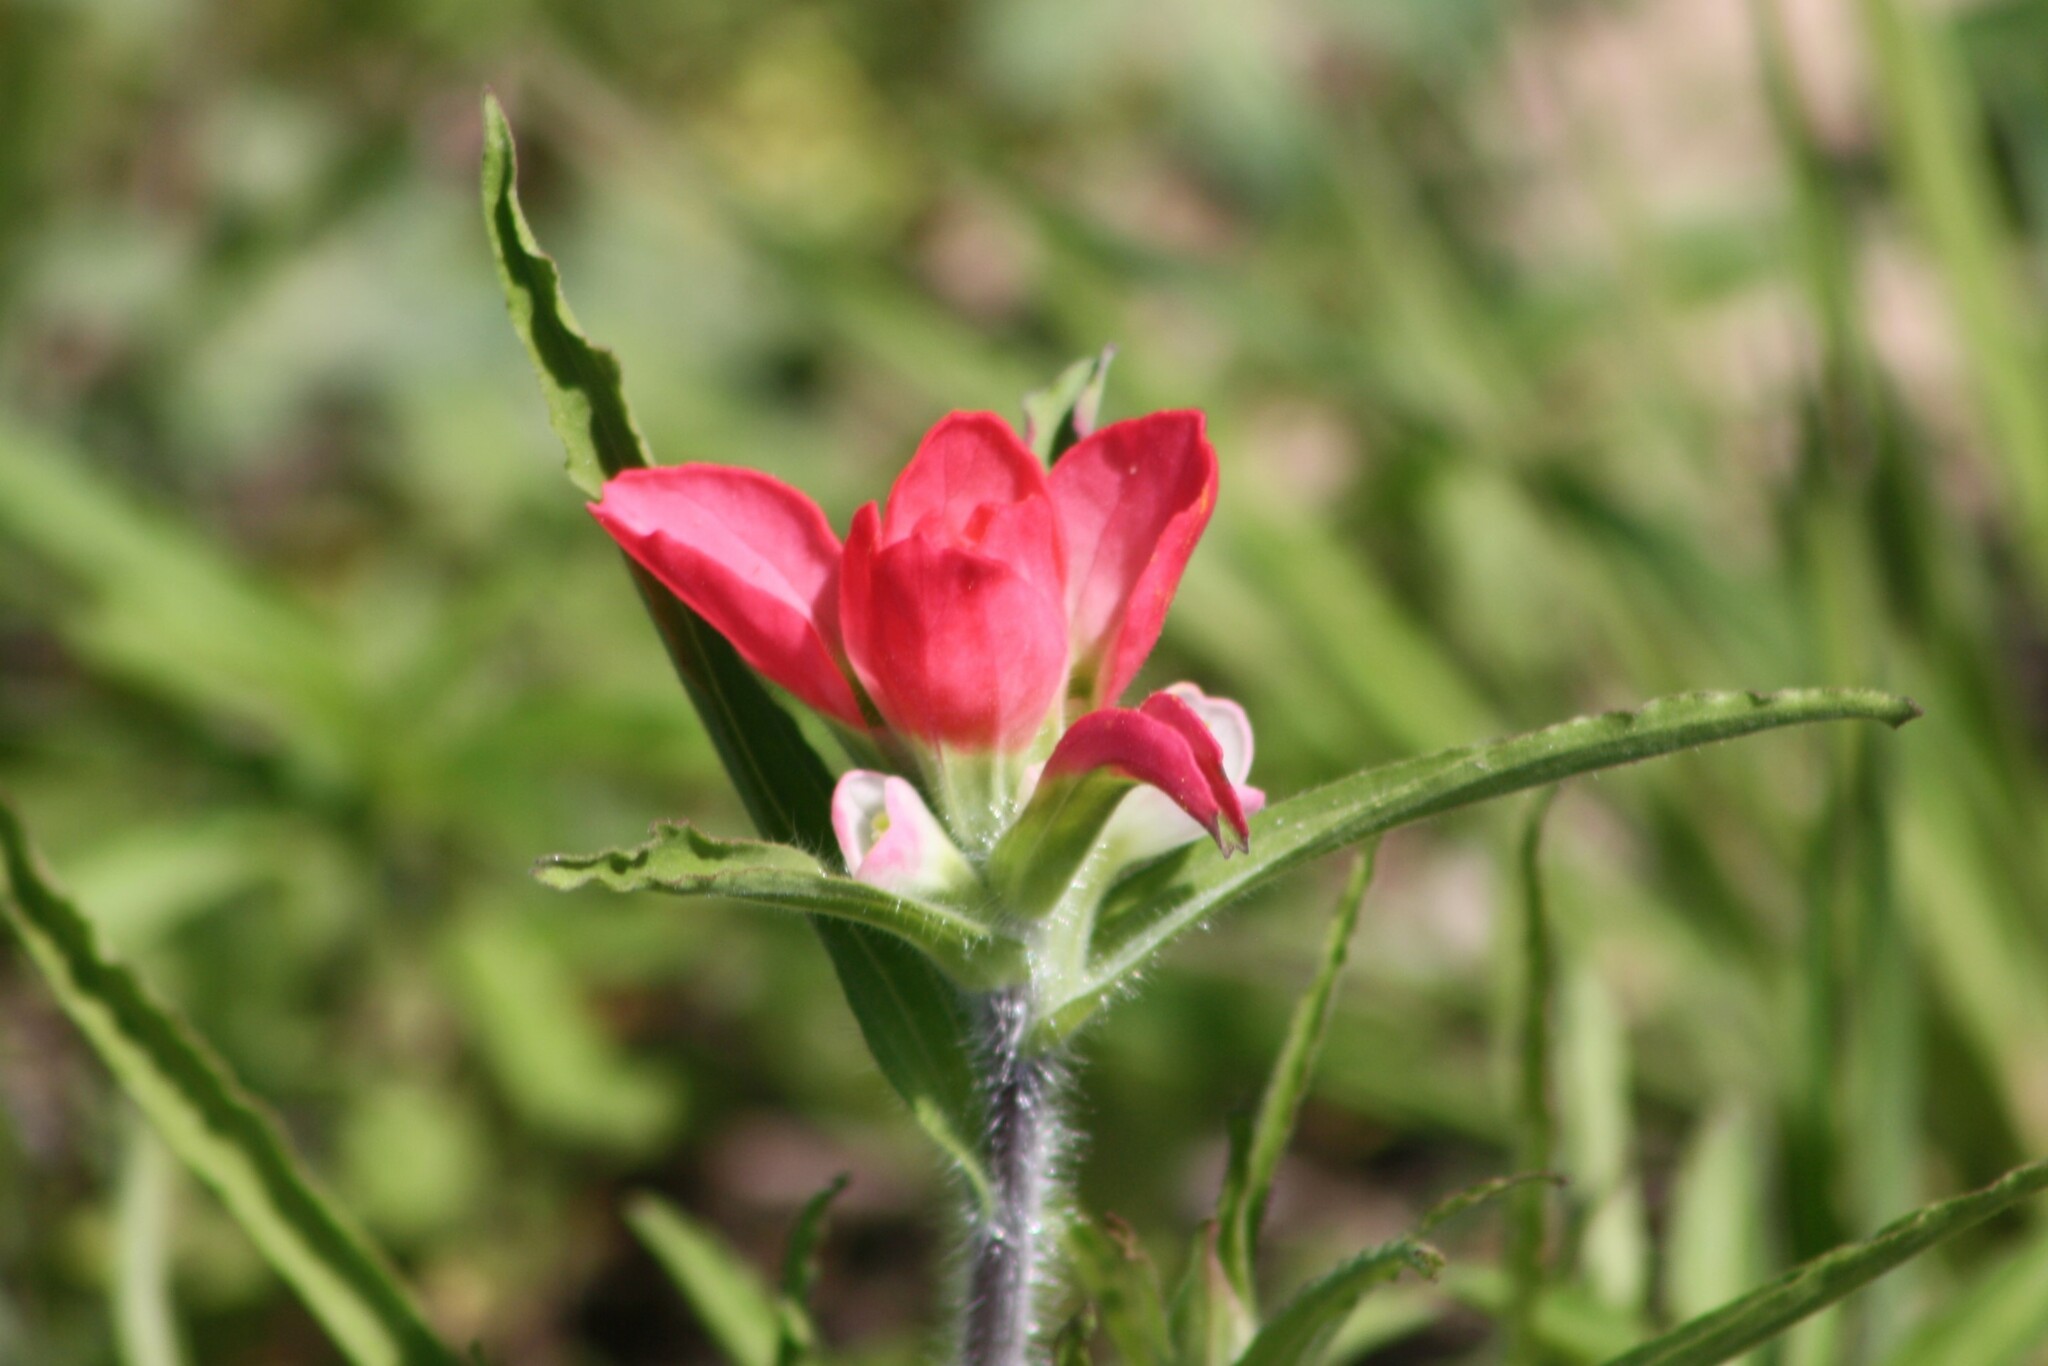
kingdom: Plantae
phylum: Tracheophyta
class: Magnoliopsida
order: Lamiales
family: Orobanchaceae
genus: Castilleja
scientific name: Castilleja indivisa
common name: Texas paintbrush
